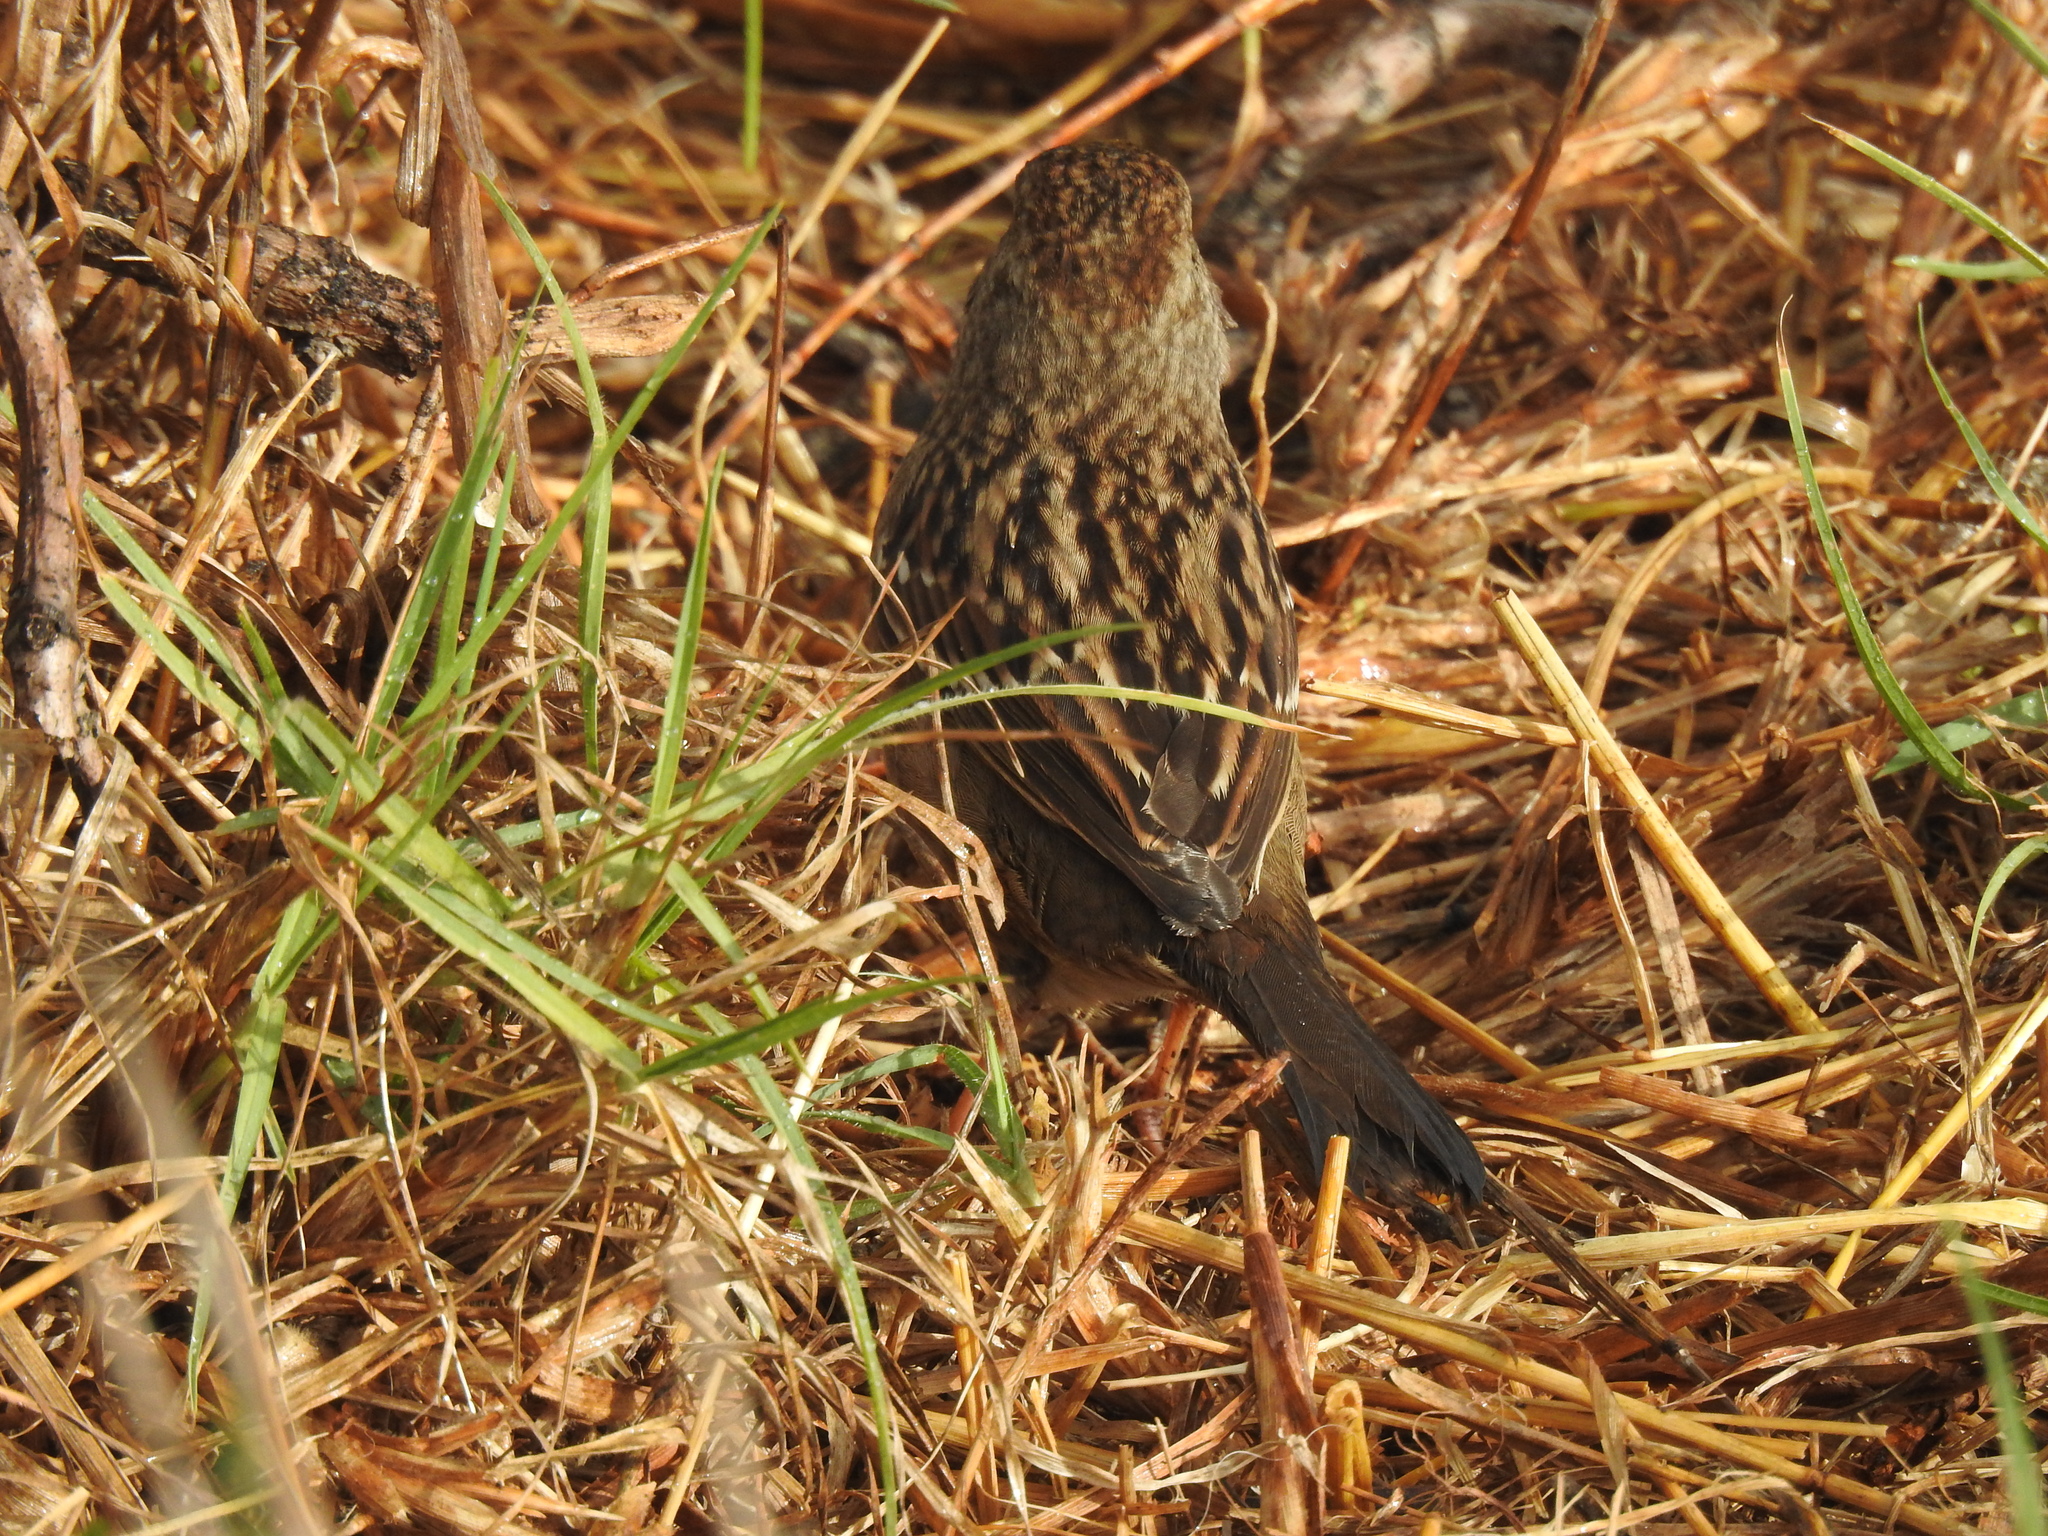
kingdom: Animalia
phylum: Chordata
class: Aves
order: Passeriformes
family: Passerellidae
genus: Zonotrichia
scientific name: Zonotrichia atricapilla
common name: Golden-crowned sparrow
